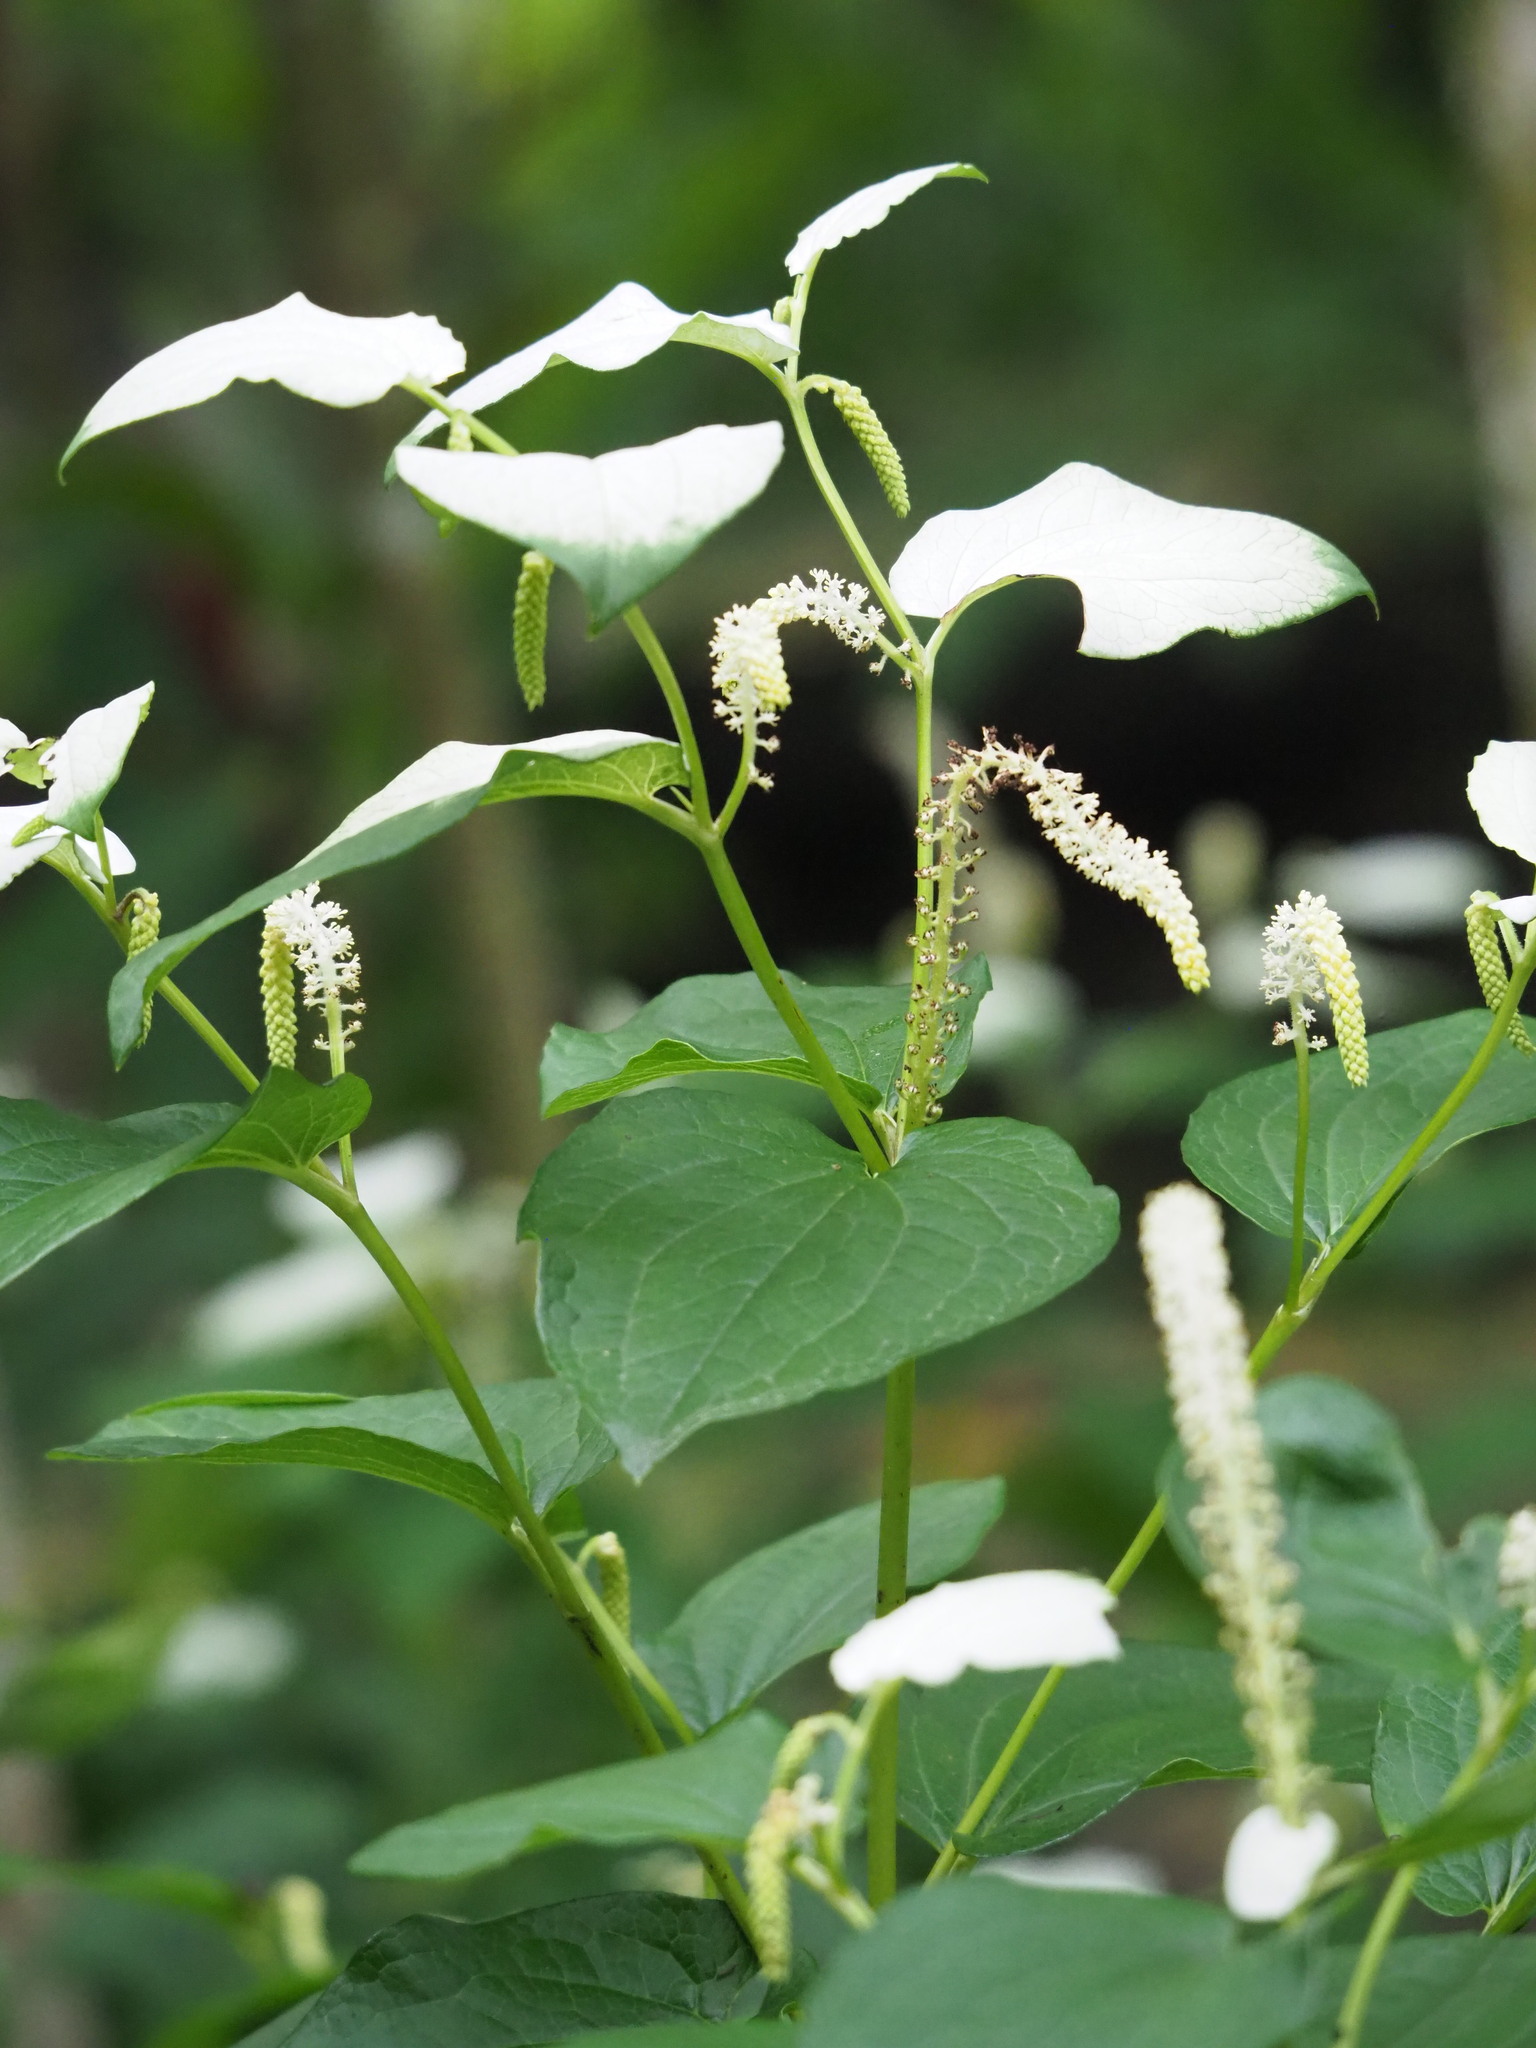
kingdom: Plantae
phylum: Tracheophyta
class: Magnoliopsida
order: Piperales
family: Saururaceae
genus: Saururus
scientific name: Saururus chinensis
